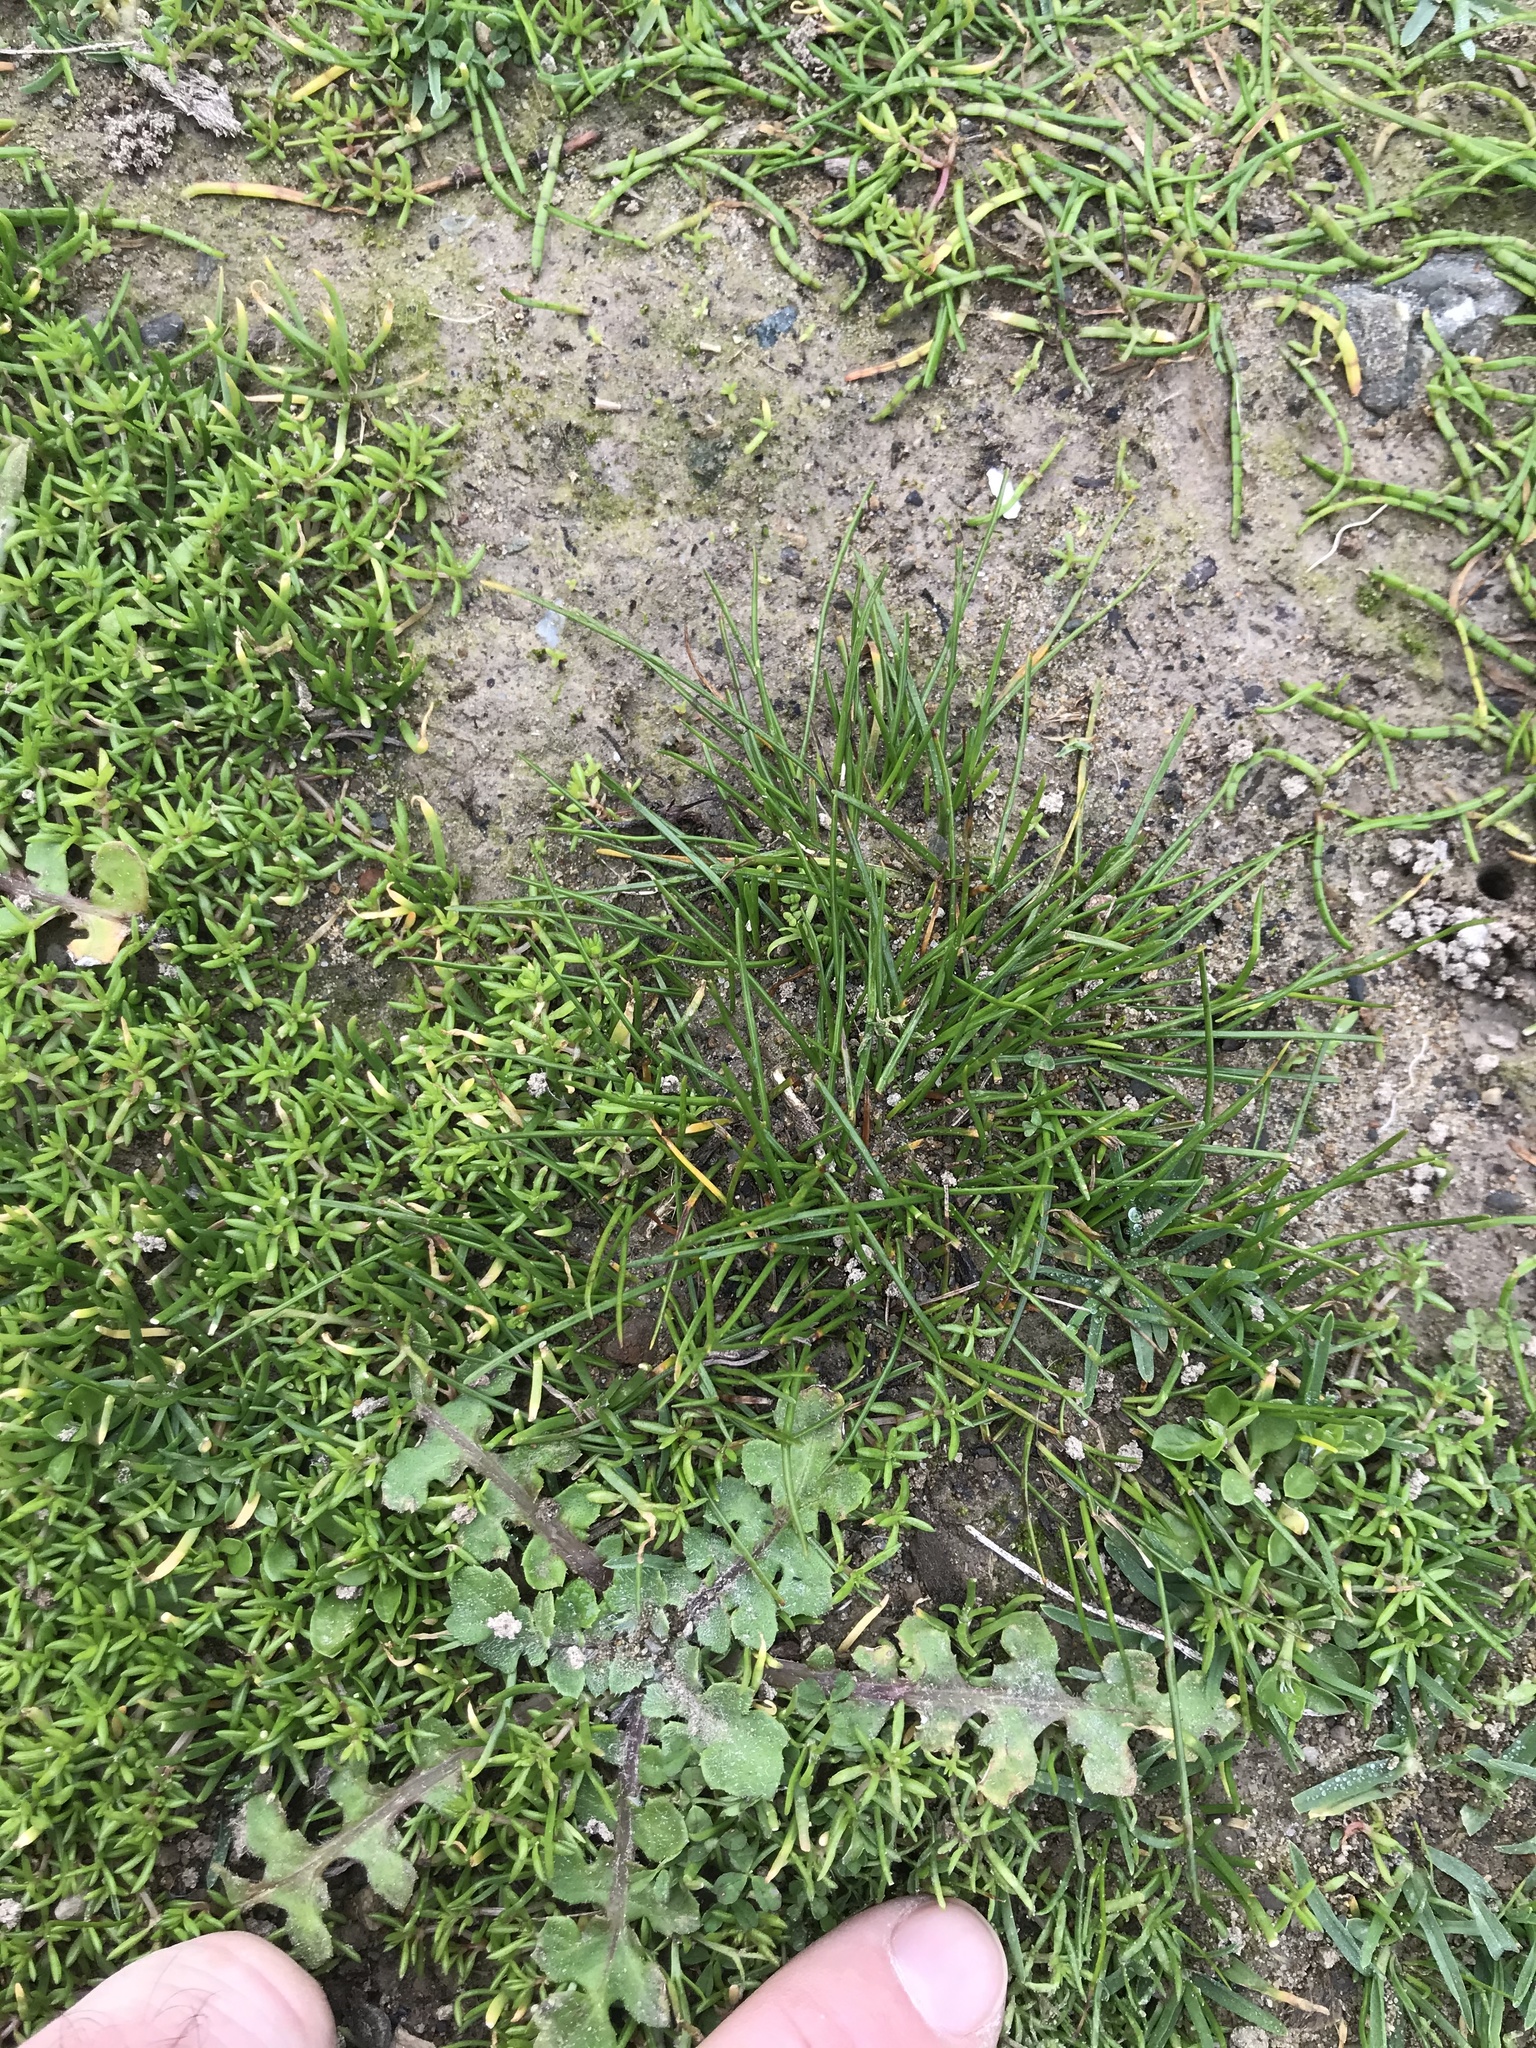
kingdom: Plantae
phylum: Tracheophyta
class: Magnoliopsida
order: Apiales
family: Apiaceae
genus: Lilaeopsis
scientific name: Lilaeopsis novae-zelandiae
